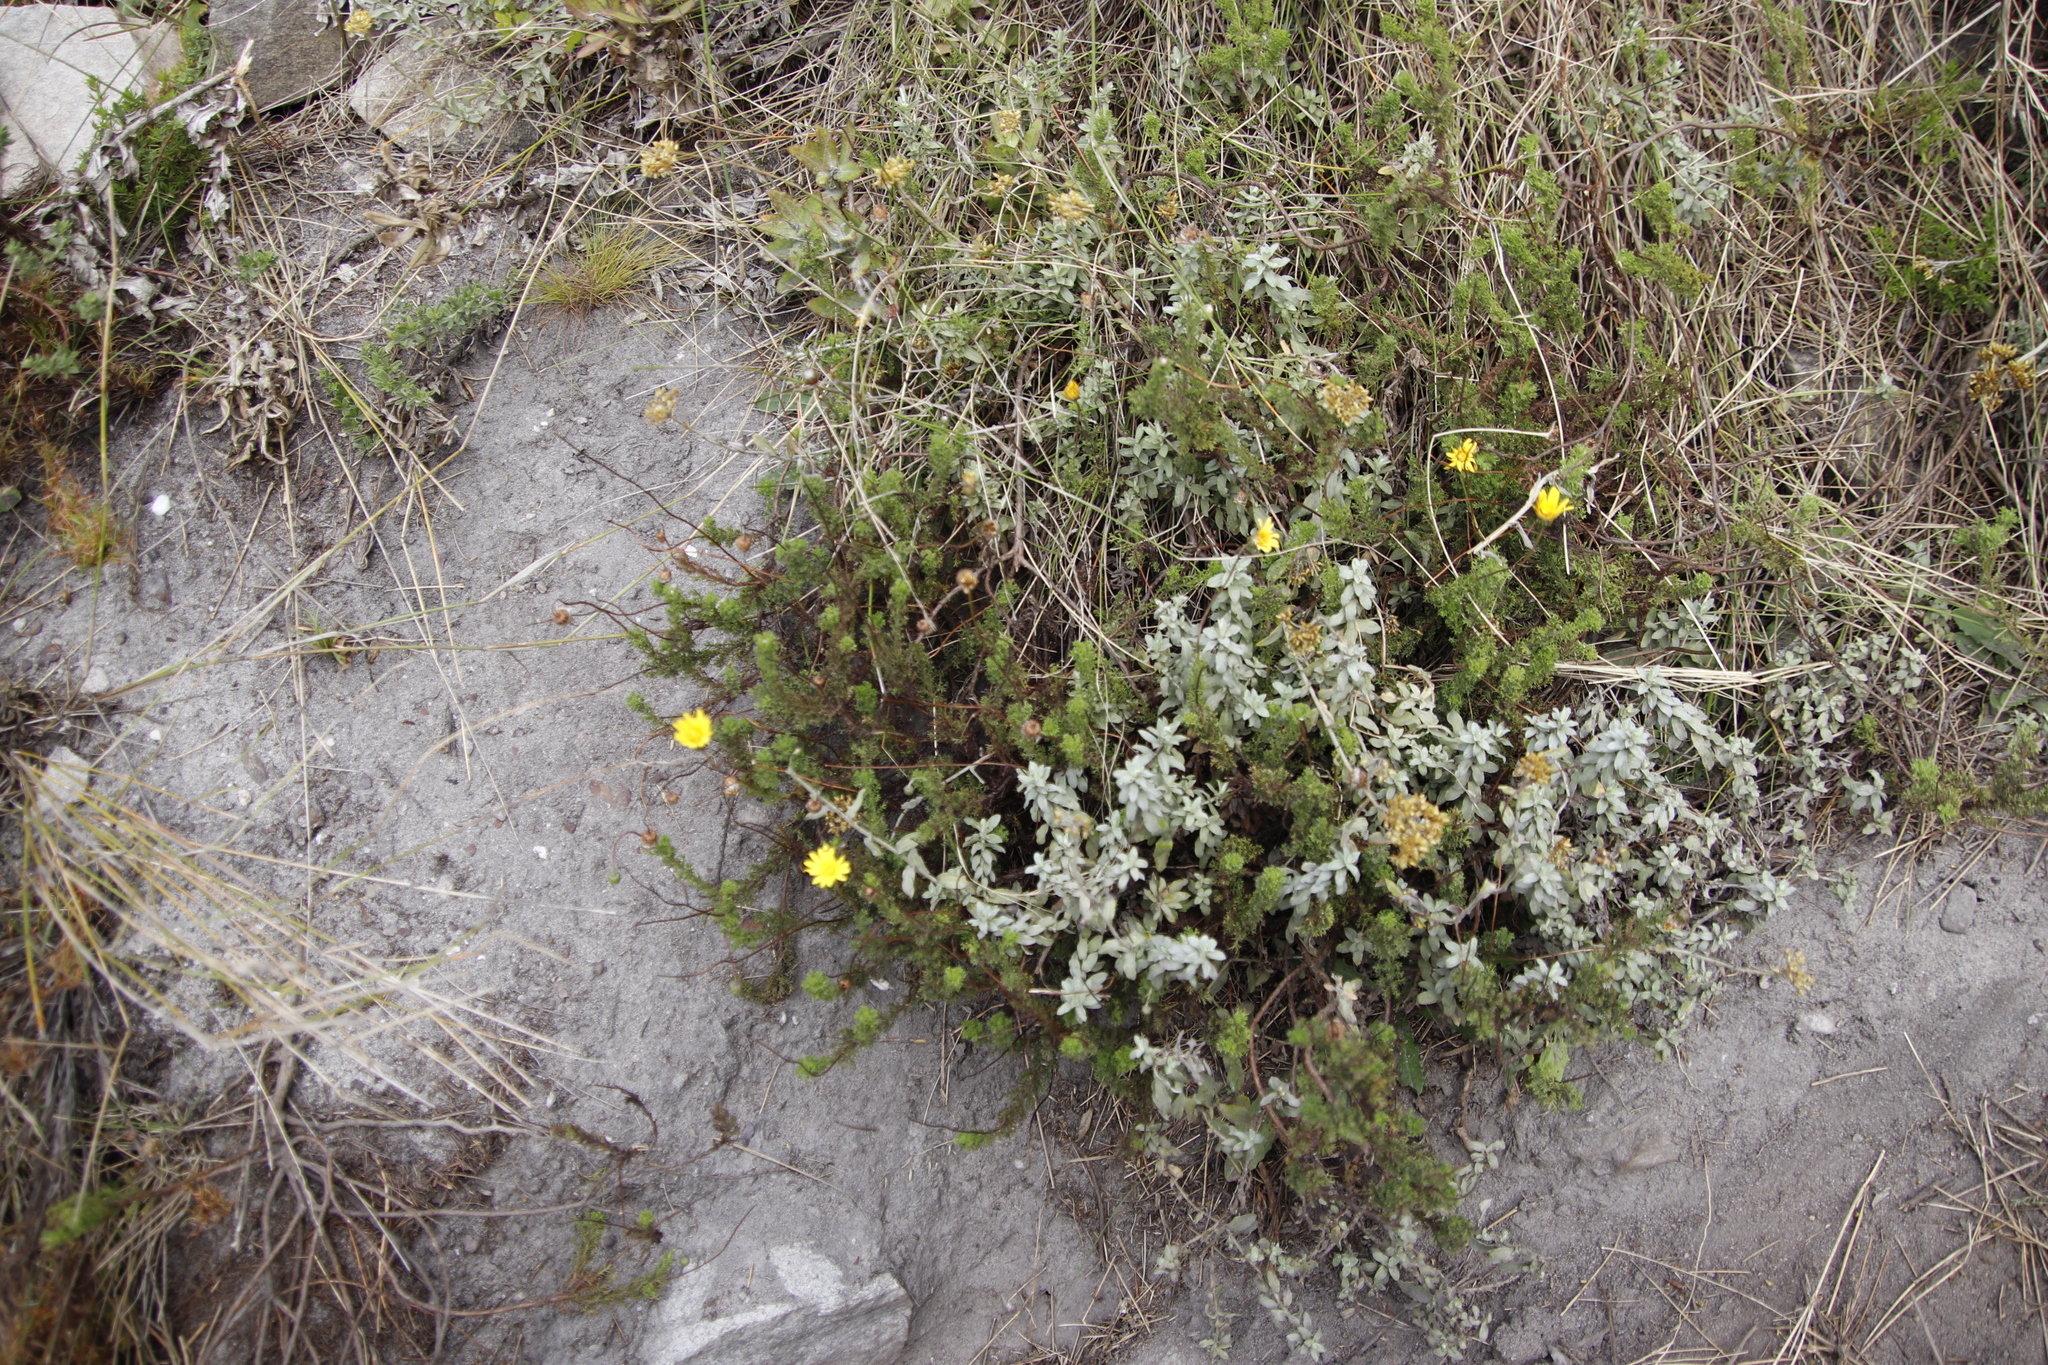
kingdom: Plantae
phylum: Tracheophyta
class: Magnoliopsida
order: Asterales
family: Asteraceae
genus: Ursinia
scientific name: Ursinia dentata
